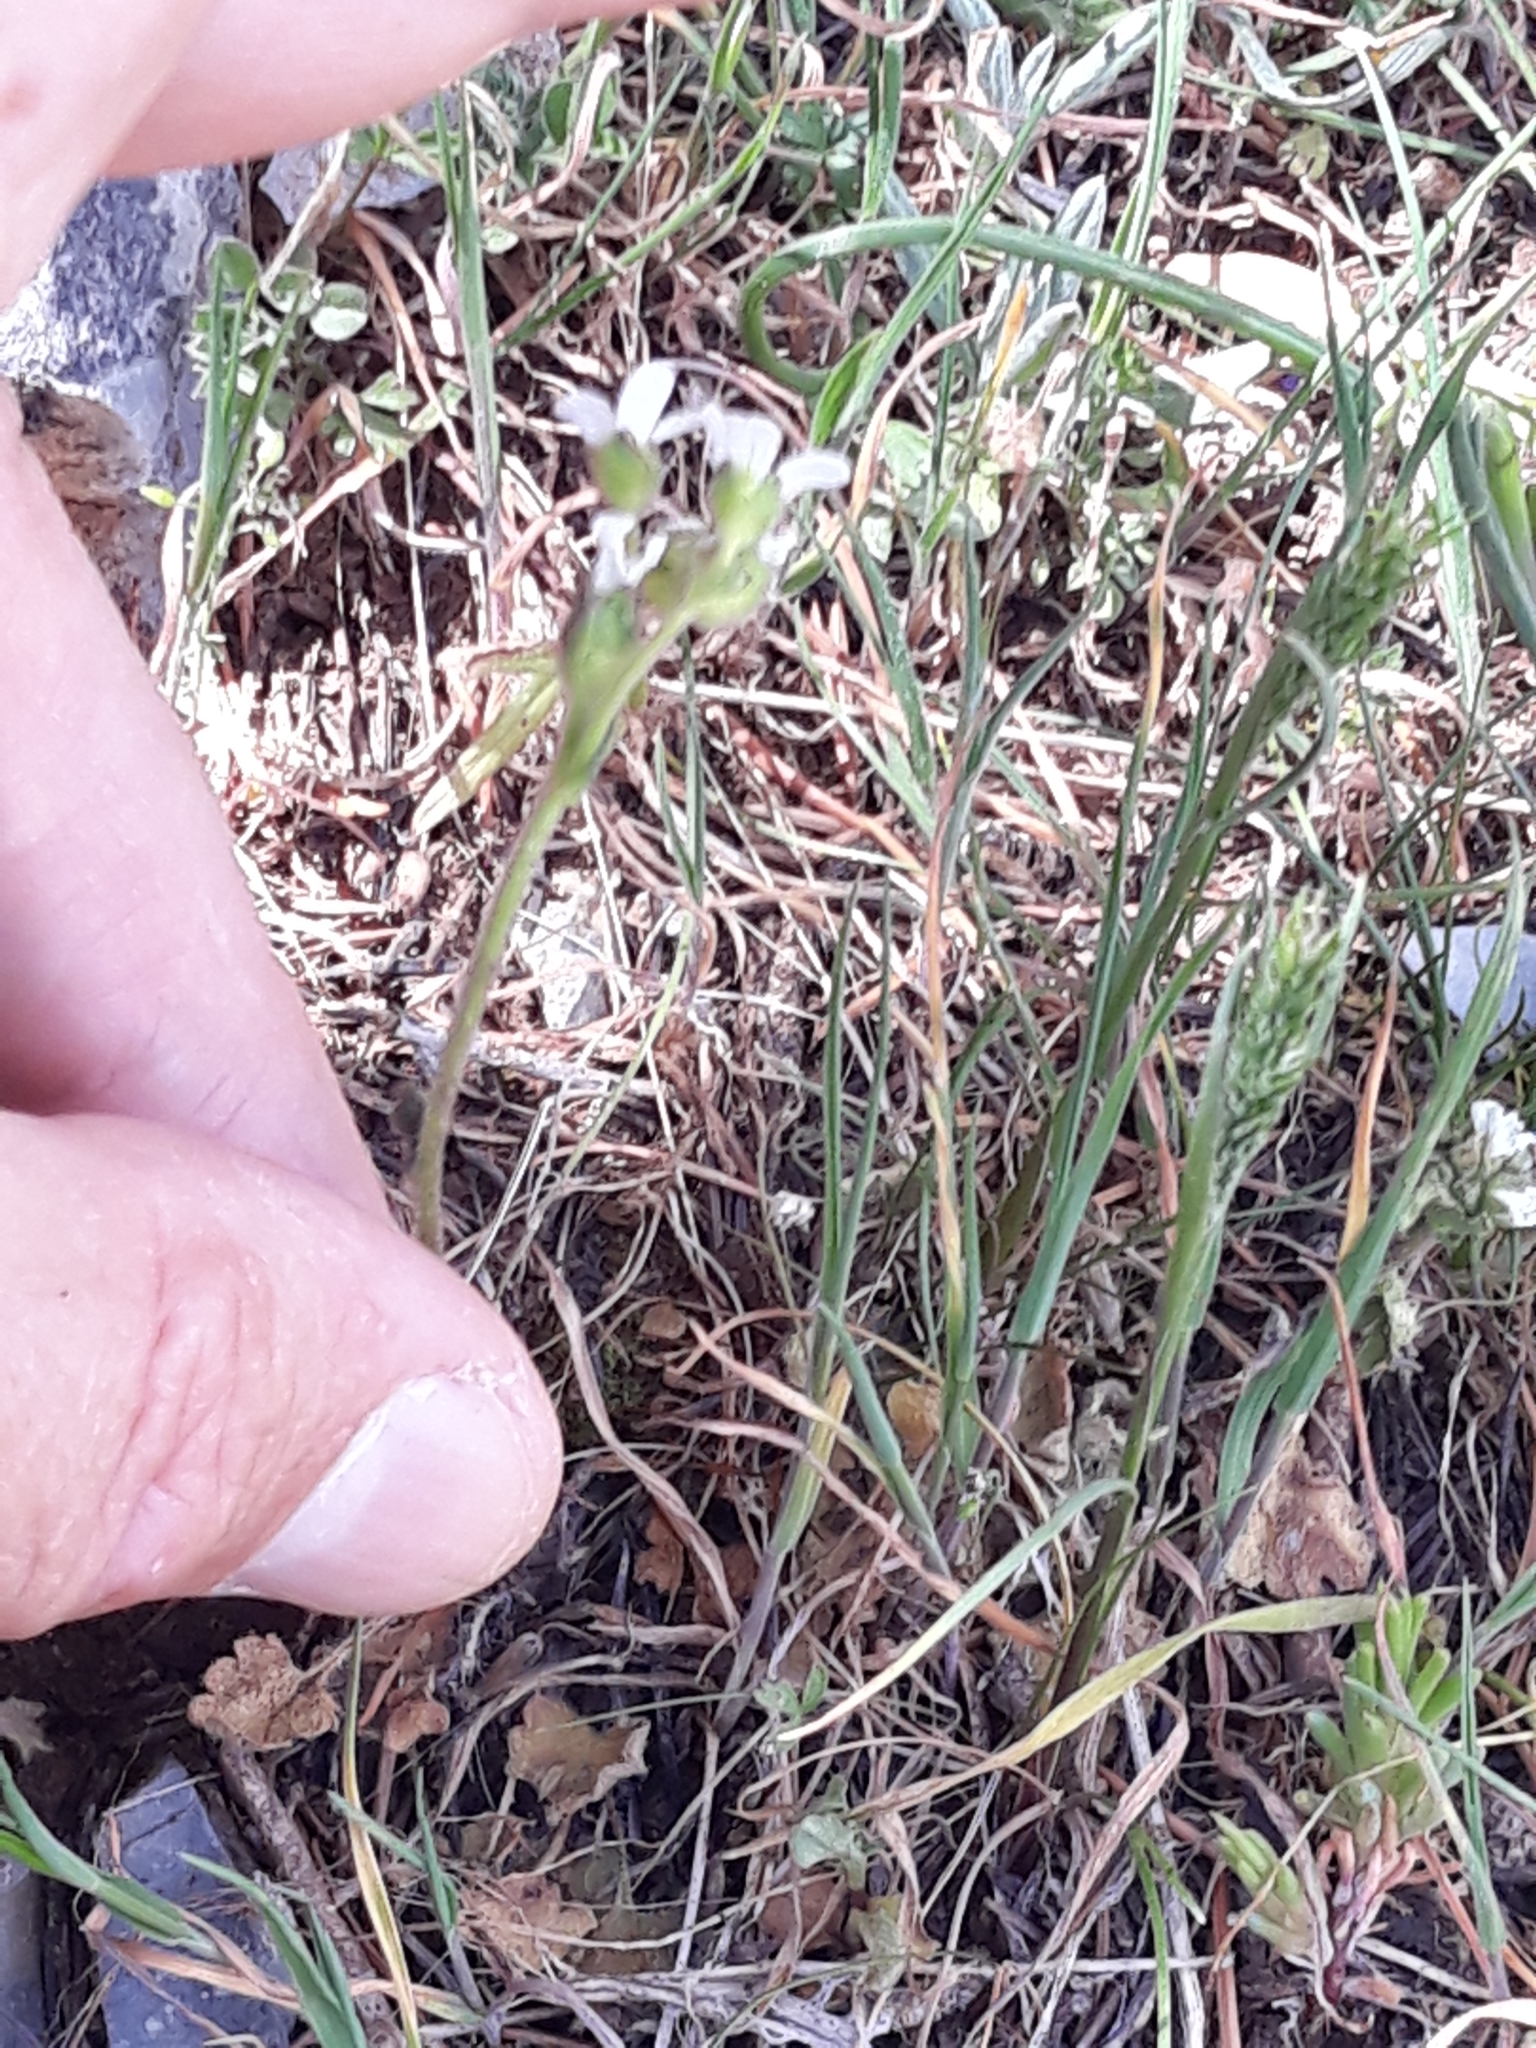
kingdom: Plantae
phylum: Tracheophyta
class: Magnoliopsida
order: Saxifragales
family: Saxifragaceae
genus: Saxifraga
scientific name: Saxifraga carpetana
